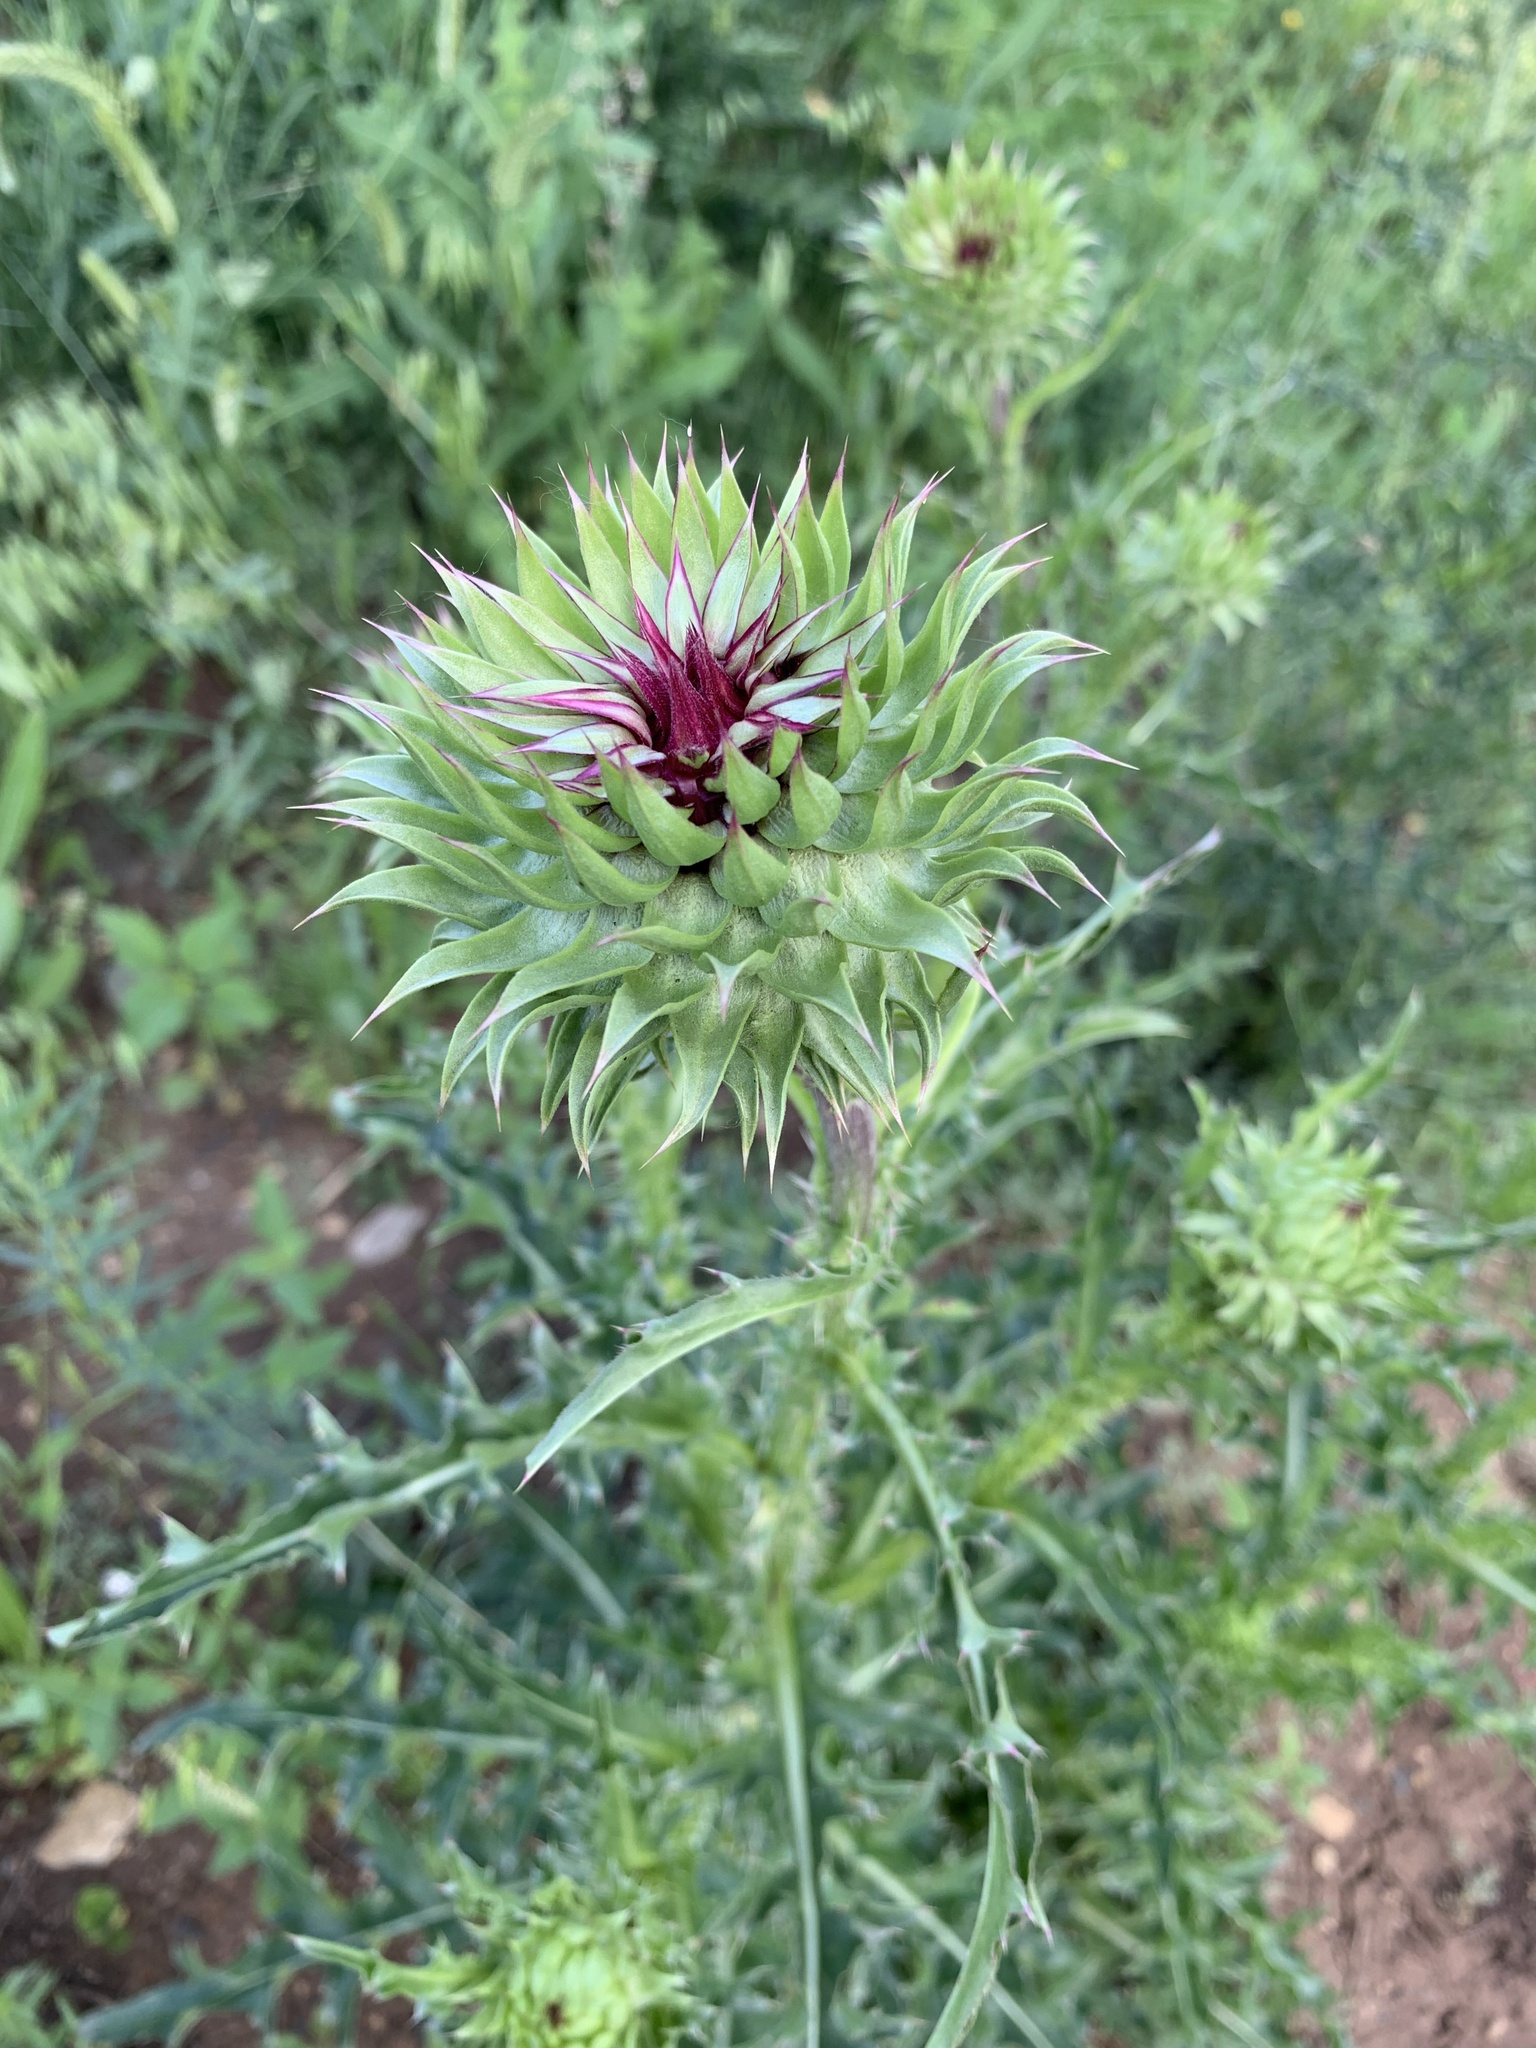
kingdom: Plantae
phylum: Tracheophyta
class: Magnoliopsida
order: Asterales
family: Asteraceae
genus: Carduus
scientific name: Carduus nutans
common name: Musk thistle
